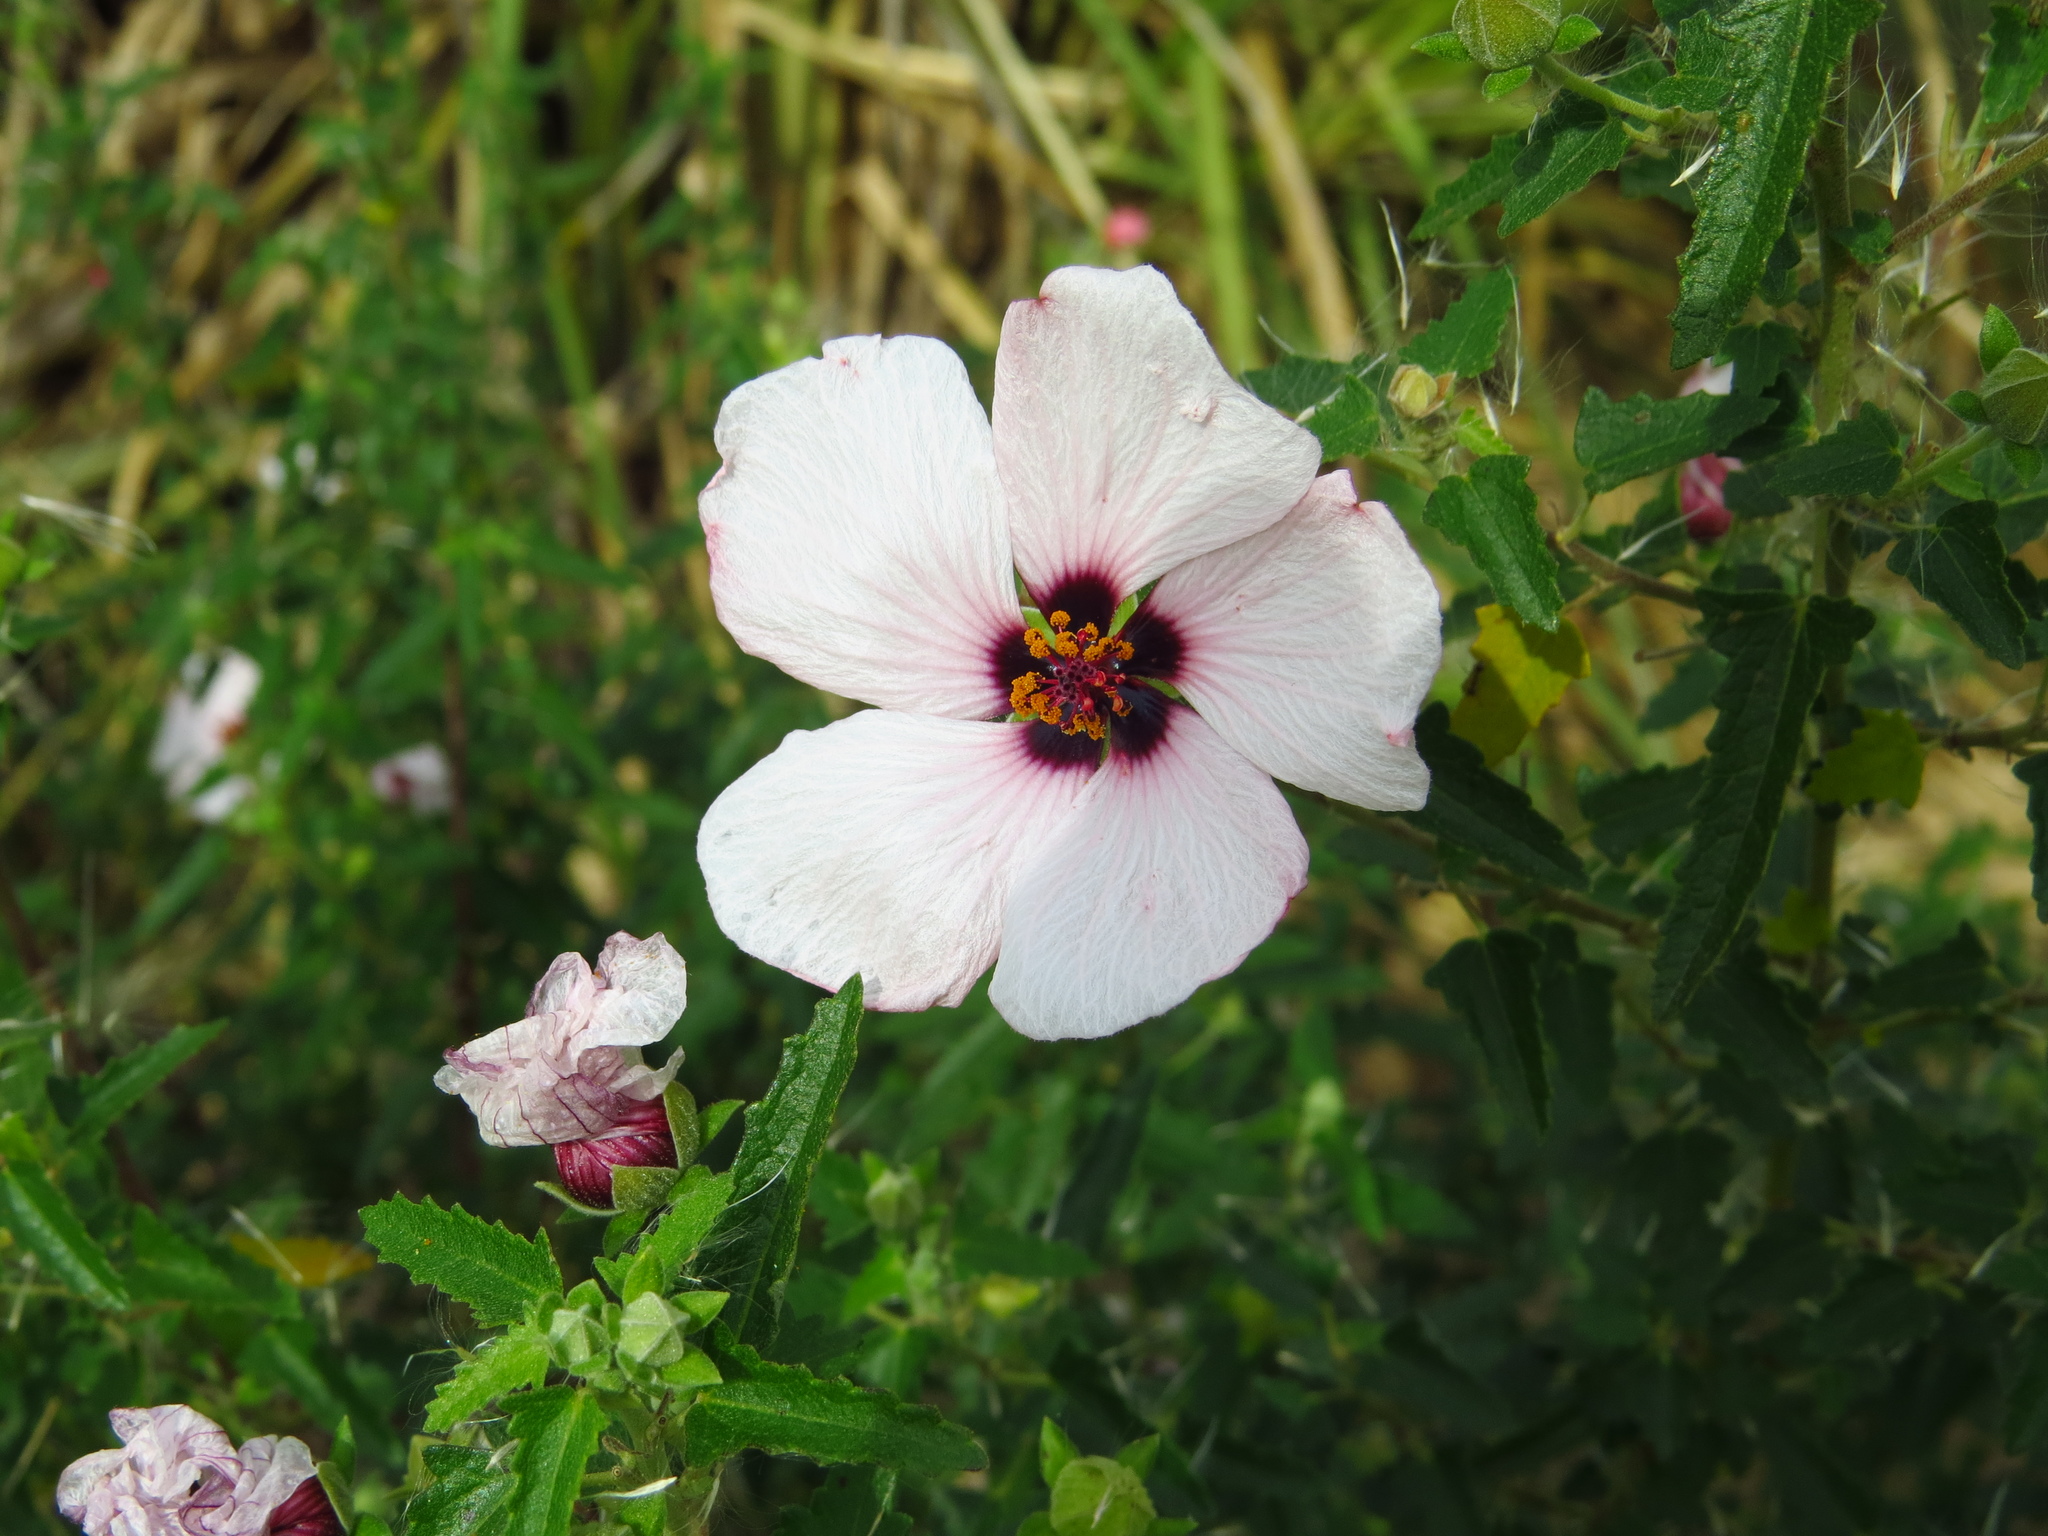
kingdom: Plantae
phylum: Tracheophyta
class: Magnoliopsida
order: Malvales
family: Malvaceae
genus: Pavonia
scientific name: Pavonia hastata
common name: Spearleaf swampmallow
